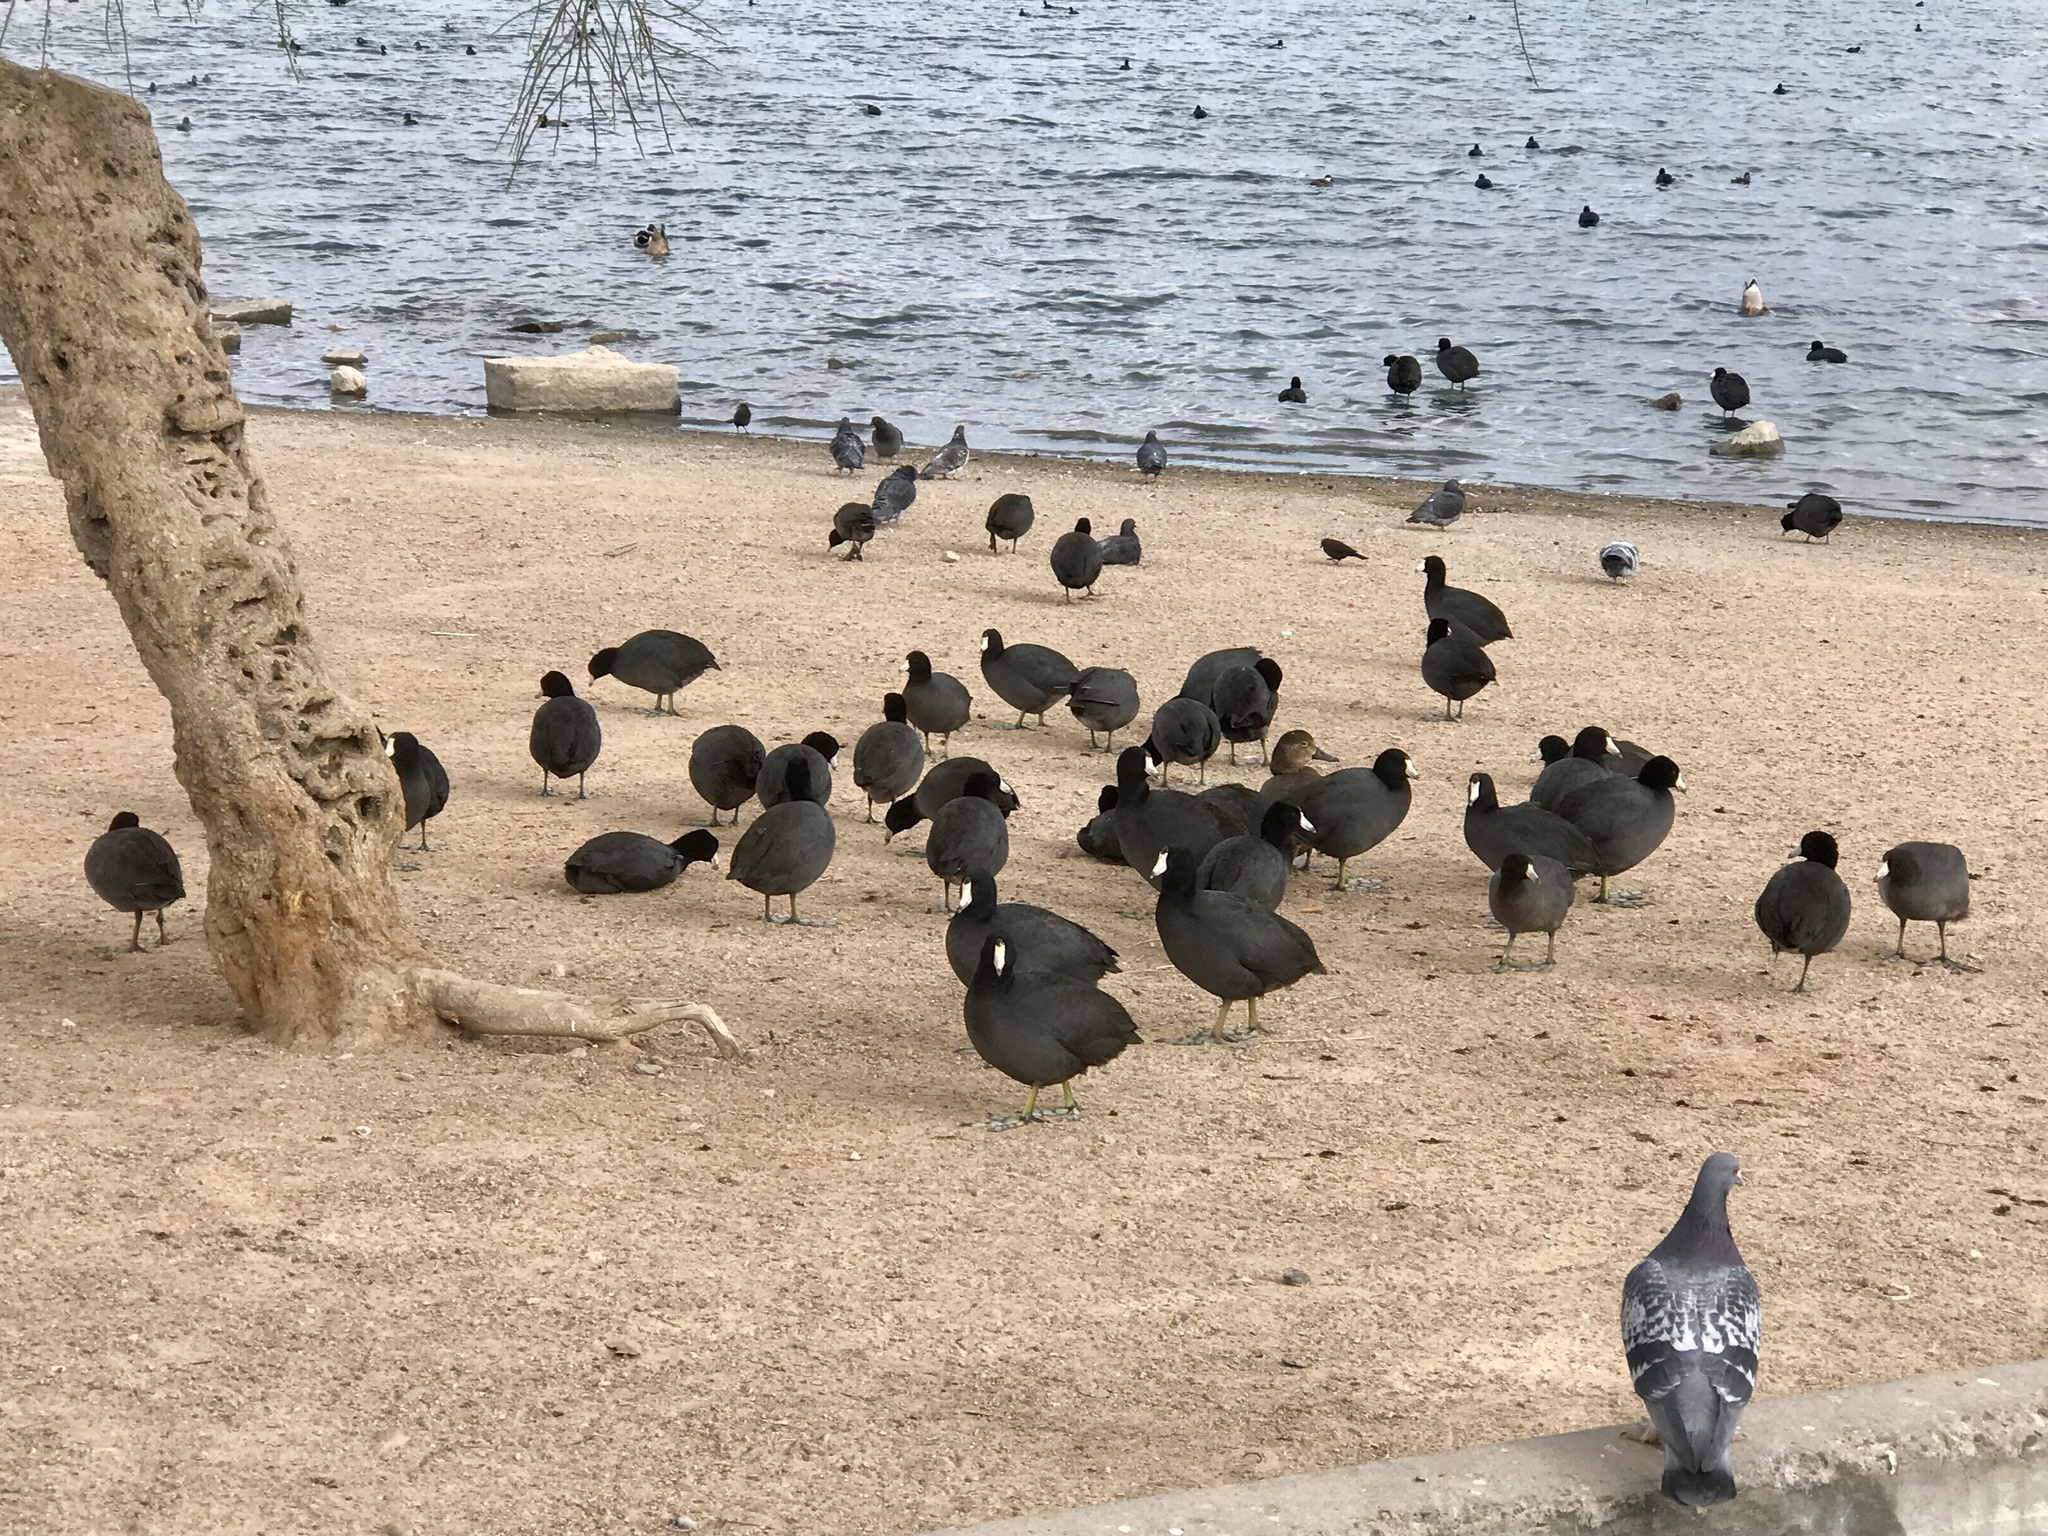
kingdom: Animalia
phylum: Chordata
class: Aves
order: Gruiformes
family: Rallidae
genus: Fulica
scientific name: Fulica americana
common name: American coot
